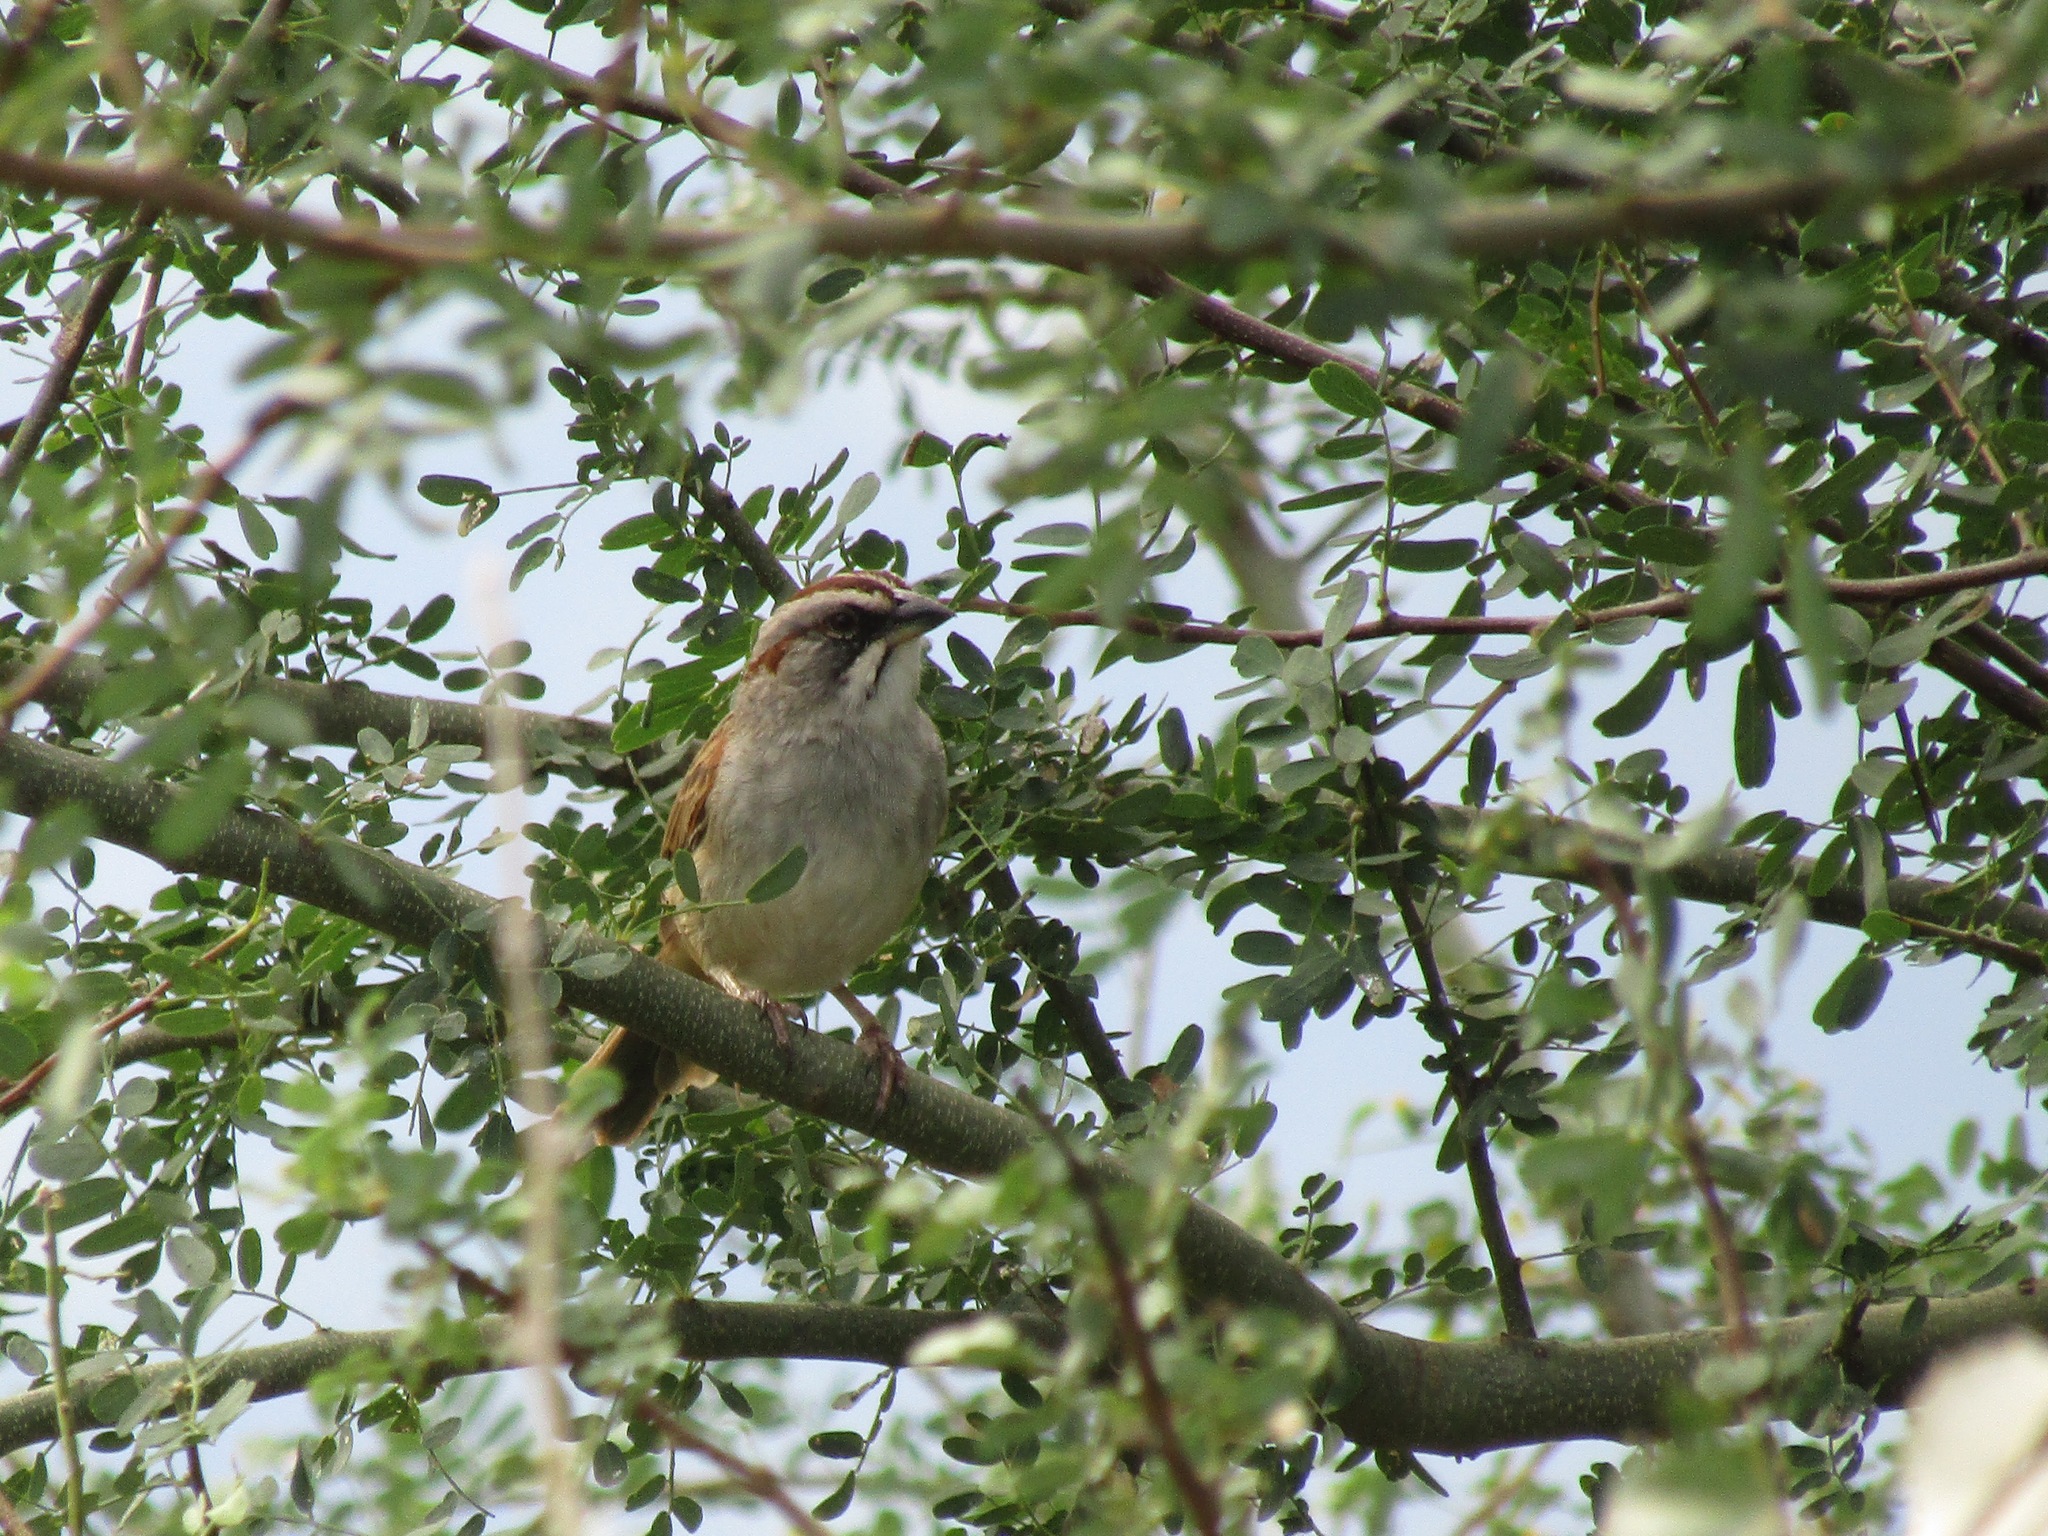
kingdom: Animalia
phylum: Chordata
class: Aves
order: Passeriformes
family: Passerellidae
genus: Rhynchospiza
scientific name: Rhynchospiza dabbenei
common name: Yungas sparrow
